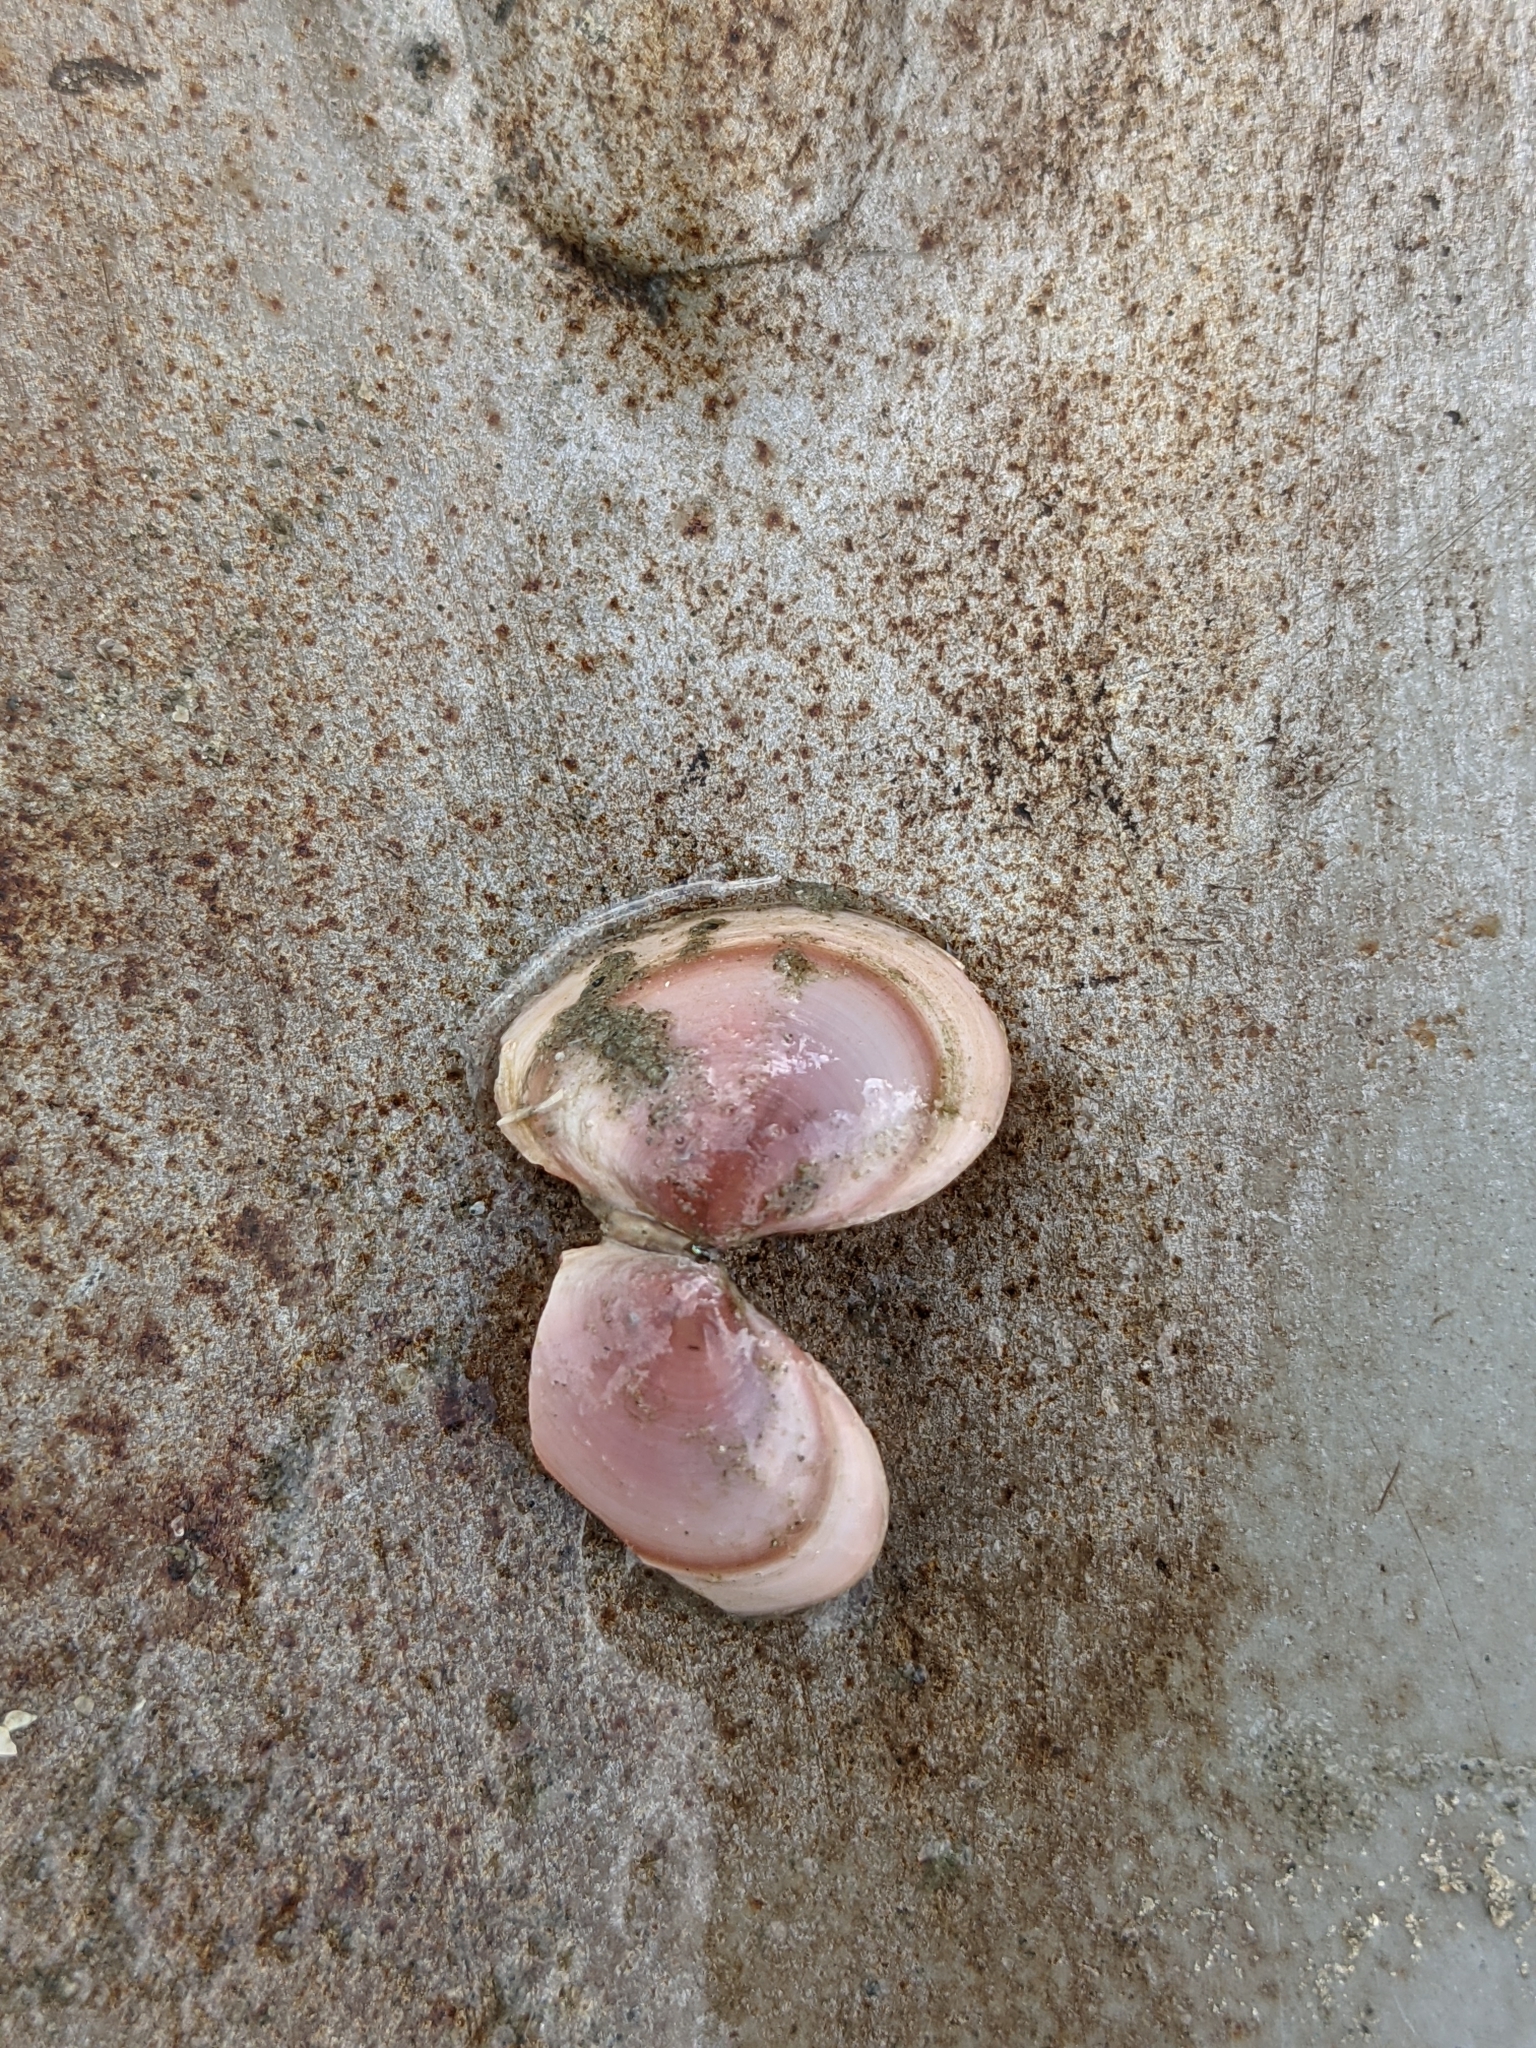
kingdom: Animalia
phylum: Mollusca
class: Bivalvia
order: Cardiida
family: Tellinidae
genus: Macoma
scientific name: Macoma balthica
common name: Baltic tellin
